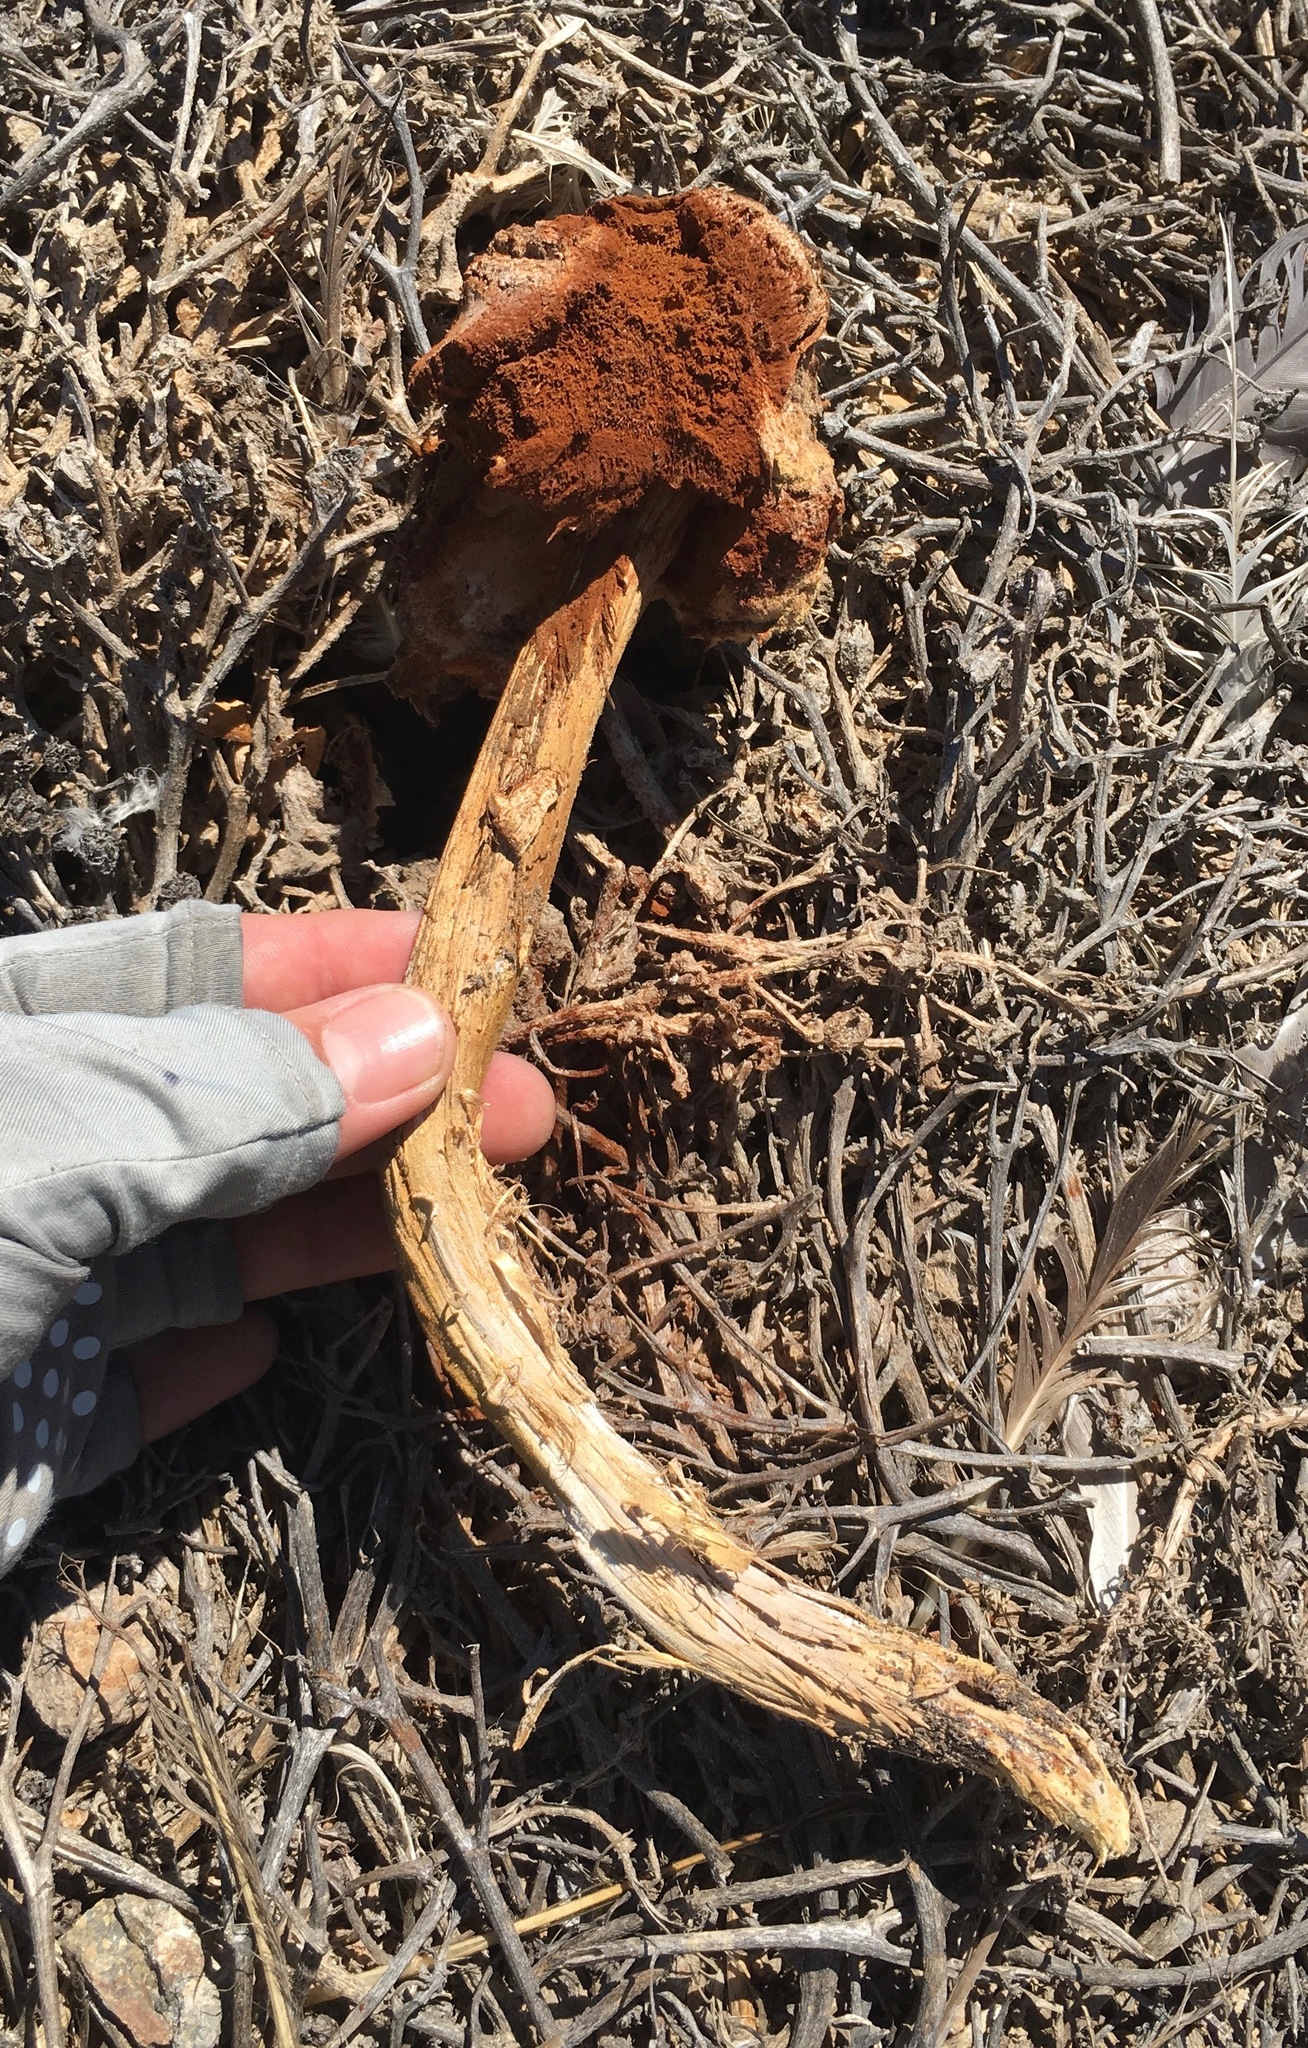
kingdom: Fungi
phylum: Basidiomycota
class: Agaricomycetes
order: Agaricales
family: Agaricaceae
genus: Battarrea
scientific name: Battarrea phalloides
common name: Sandy stiltball
